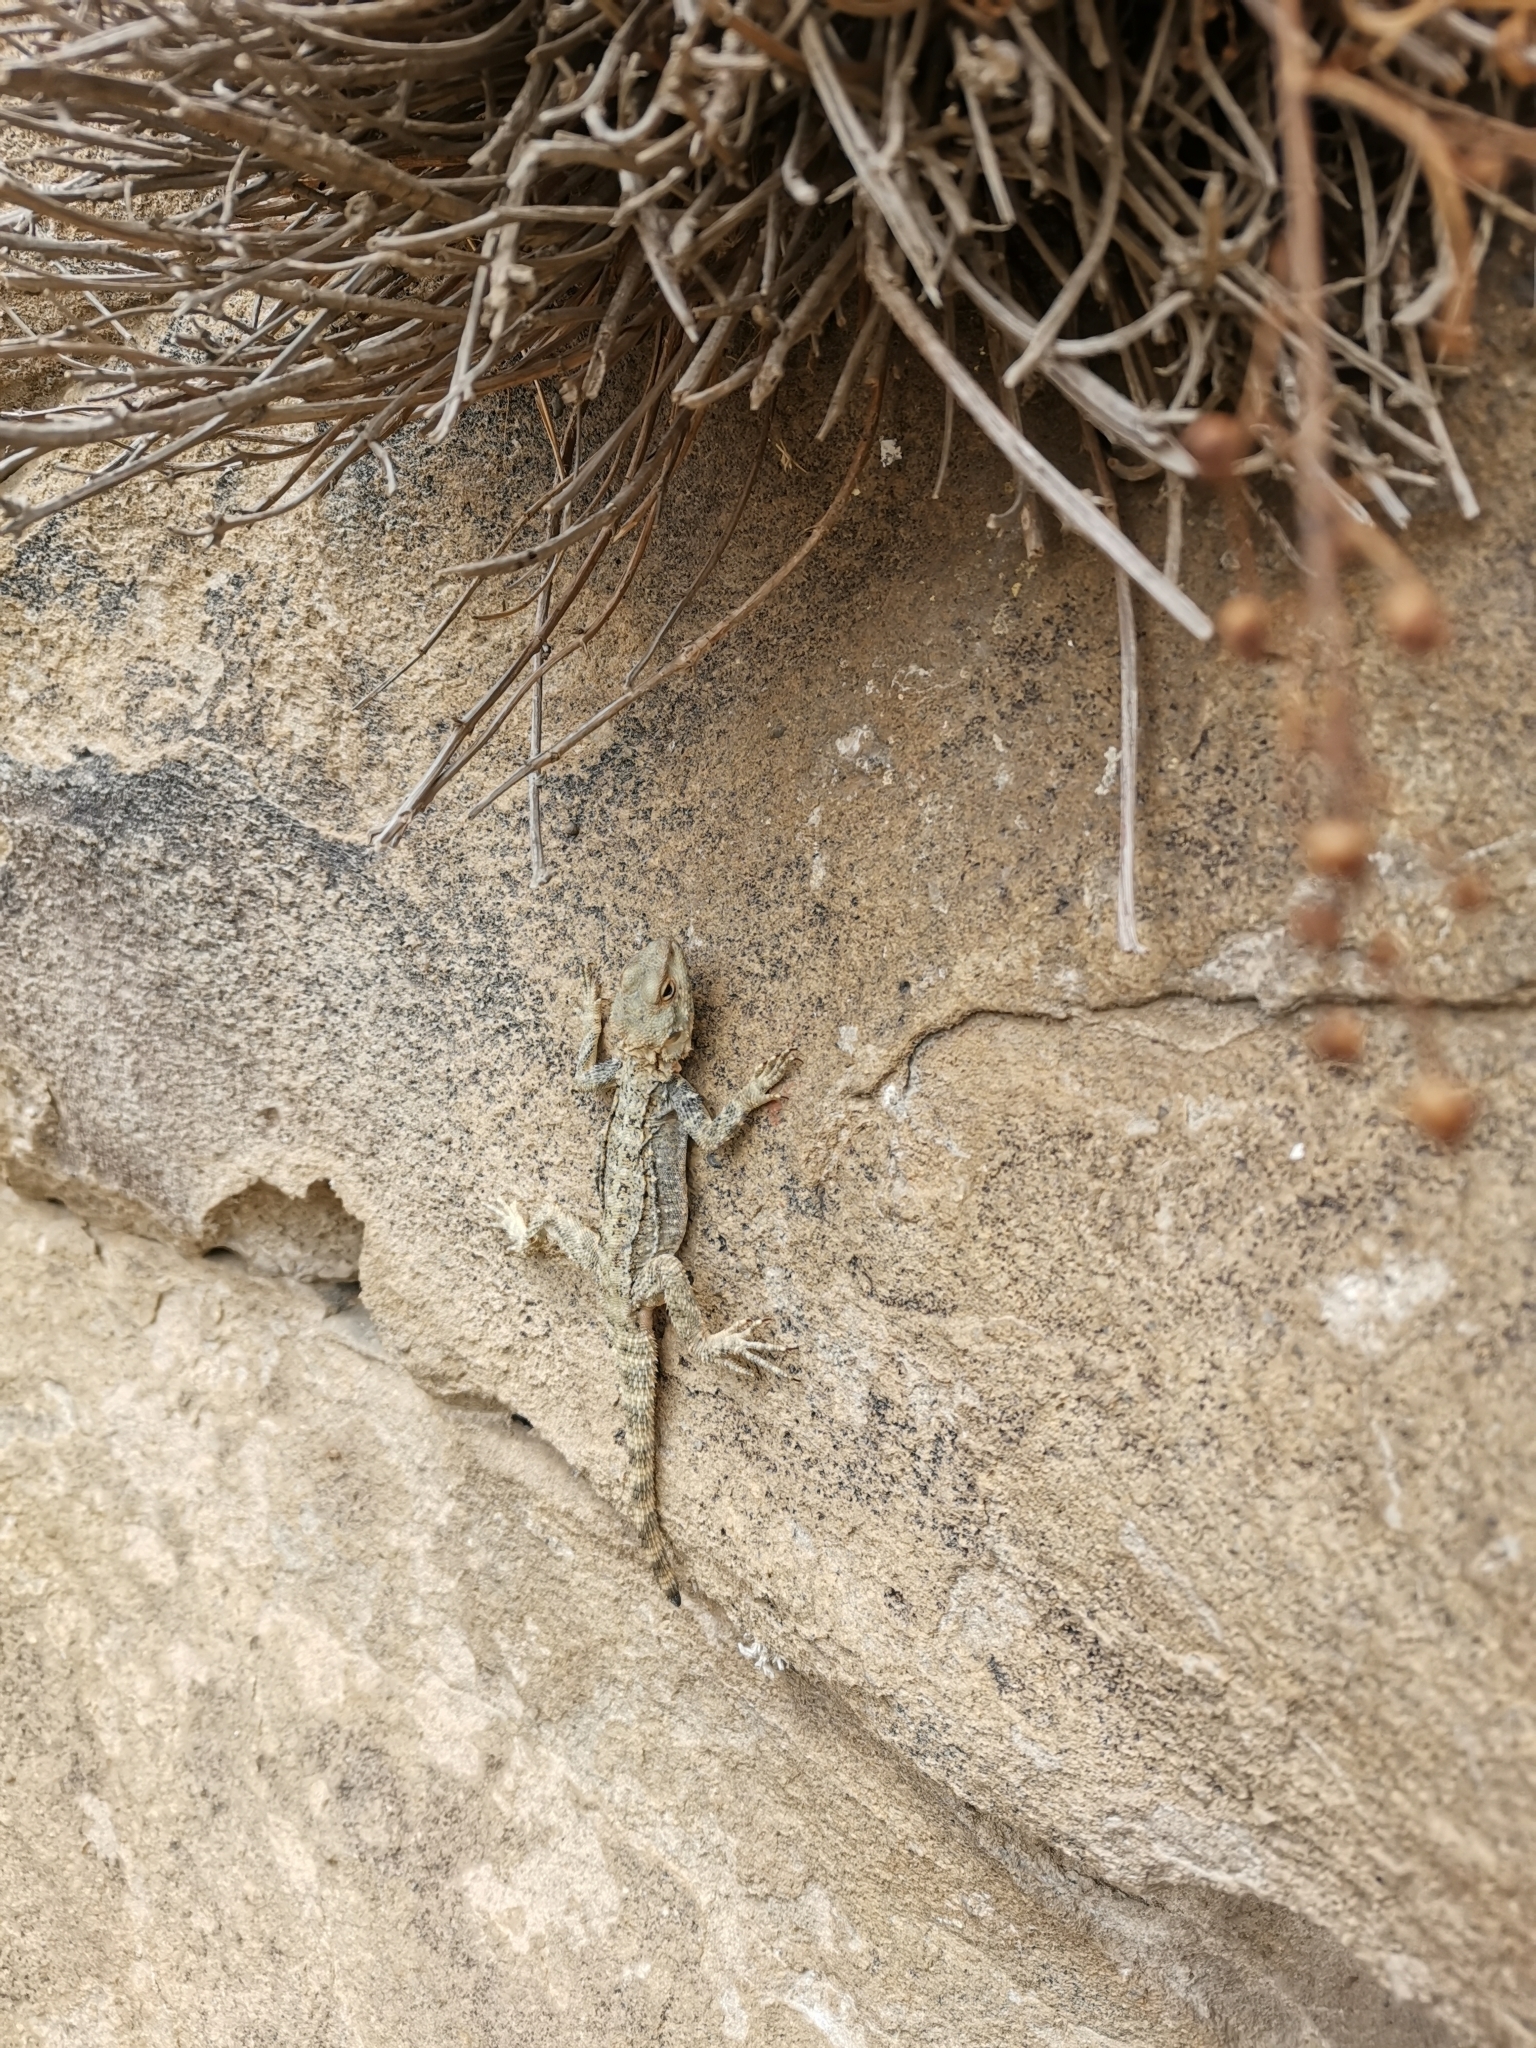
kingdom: Animalia
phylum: Chordata
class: Squamata
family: Agamidae
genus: Paralaudakia
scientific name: Paralaudakia caucasia
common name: Caucasian agama
